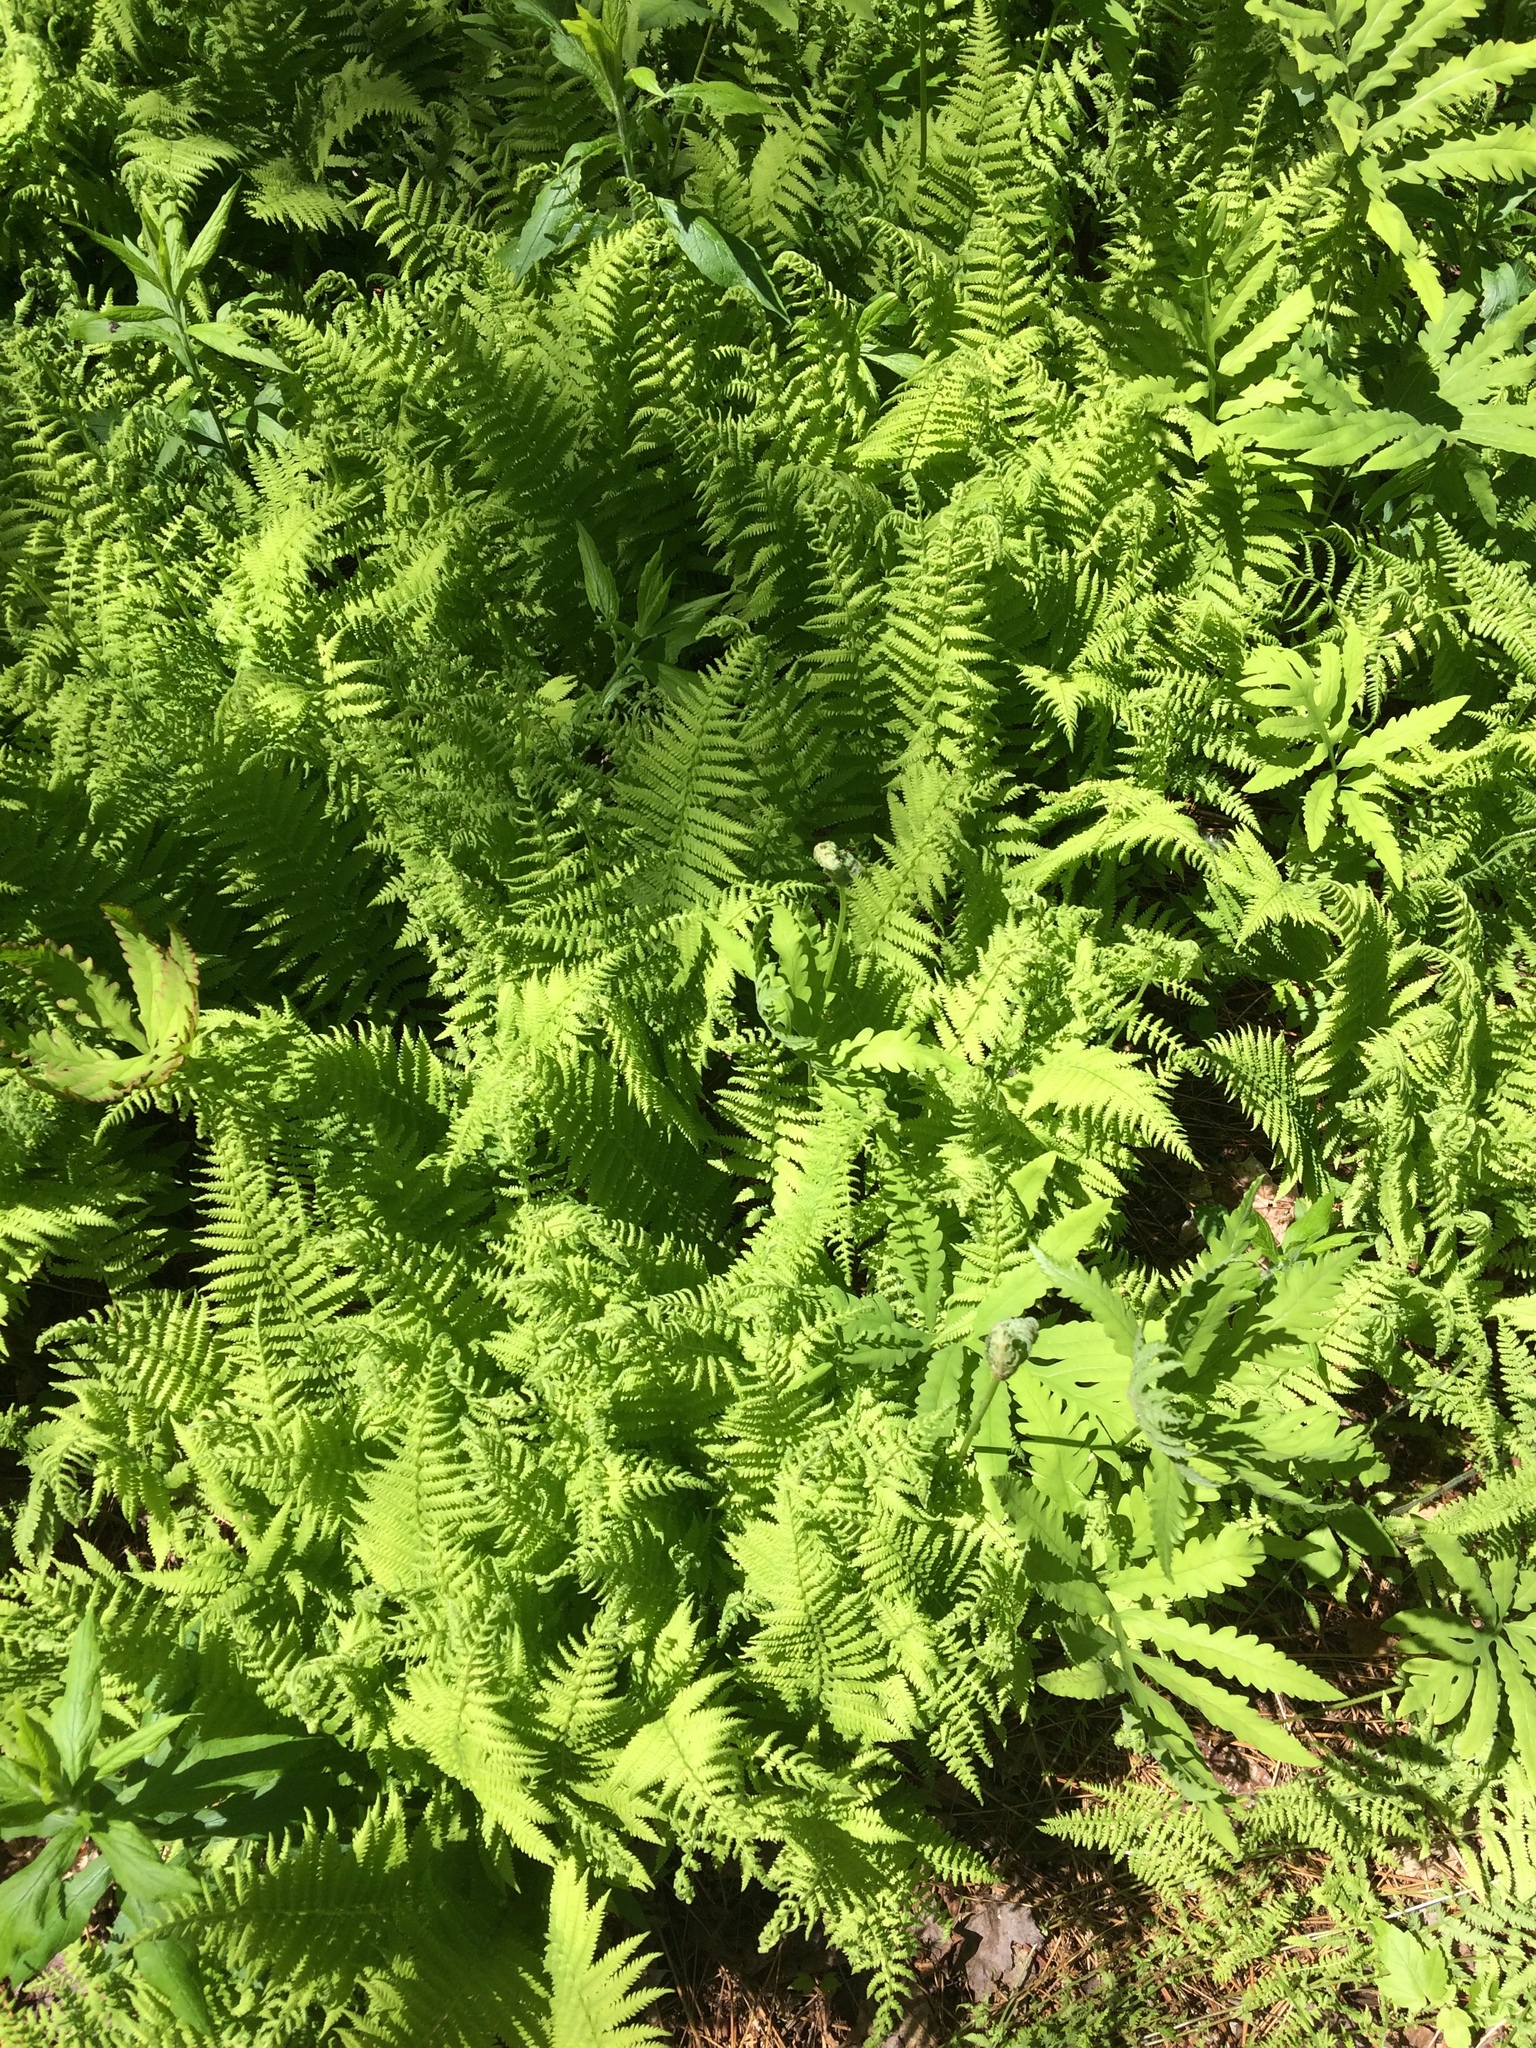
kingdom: Plantae
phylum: Tracheophyta
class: Polypodiopsida
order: Polypodiales
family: Dennstaedtiaceae
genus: Sitobolium
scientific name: Sitobolium punctilobum
